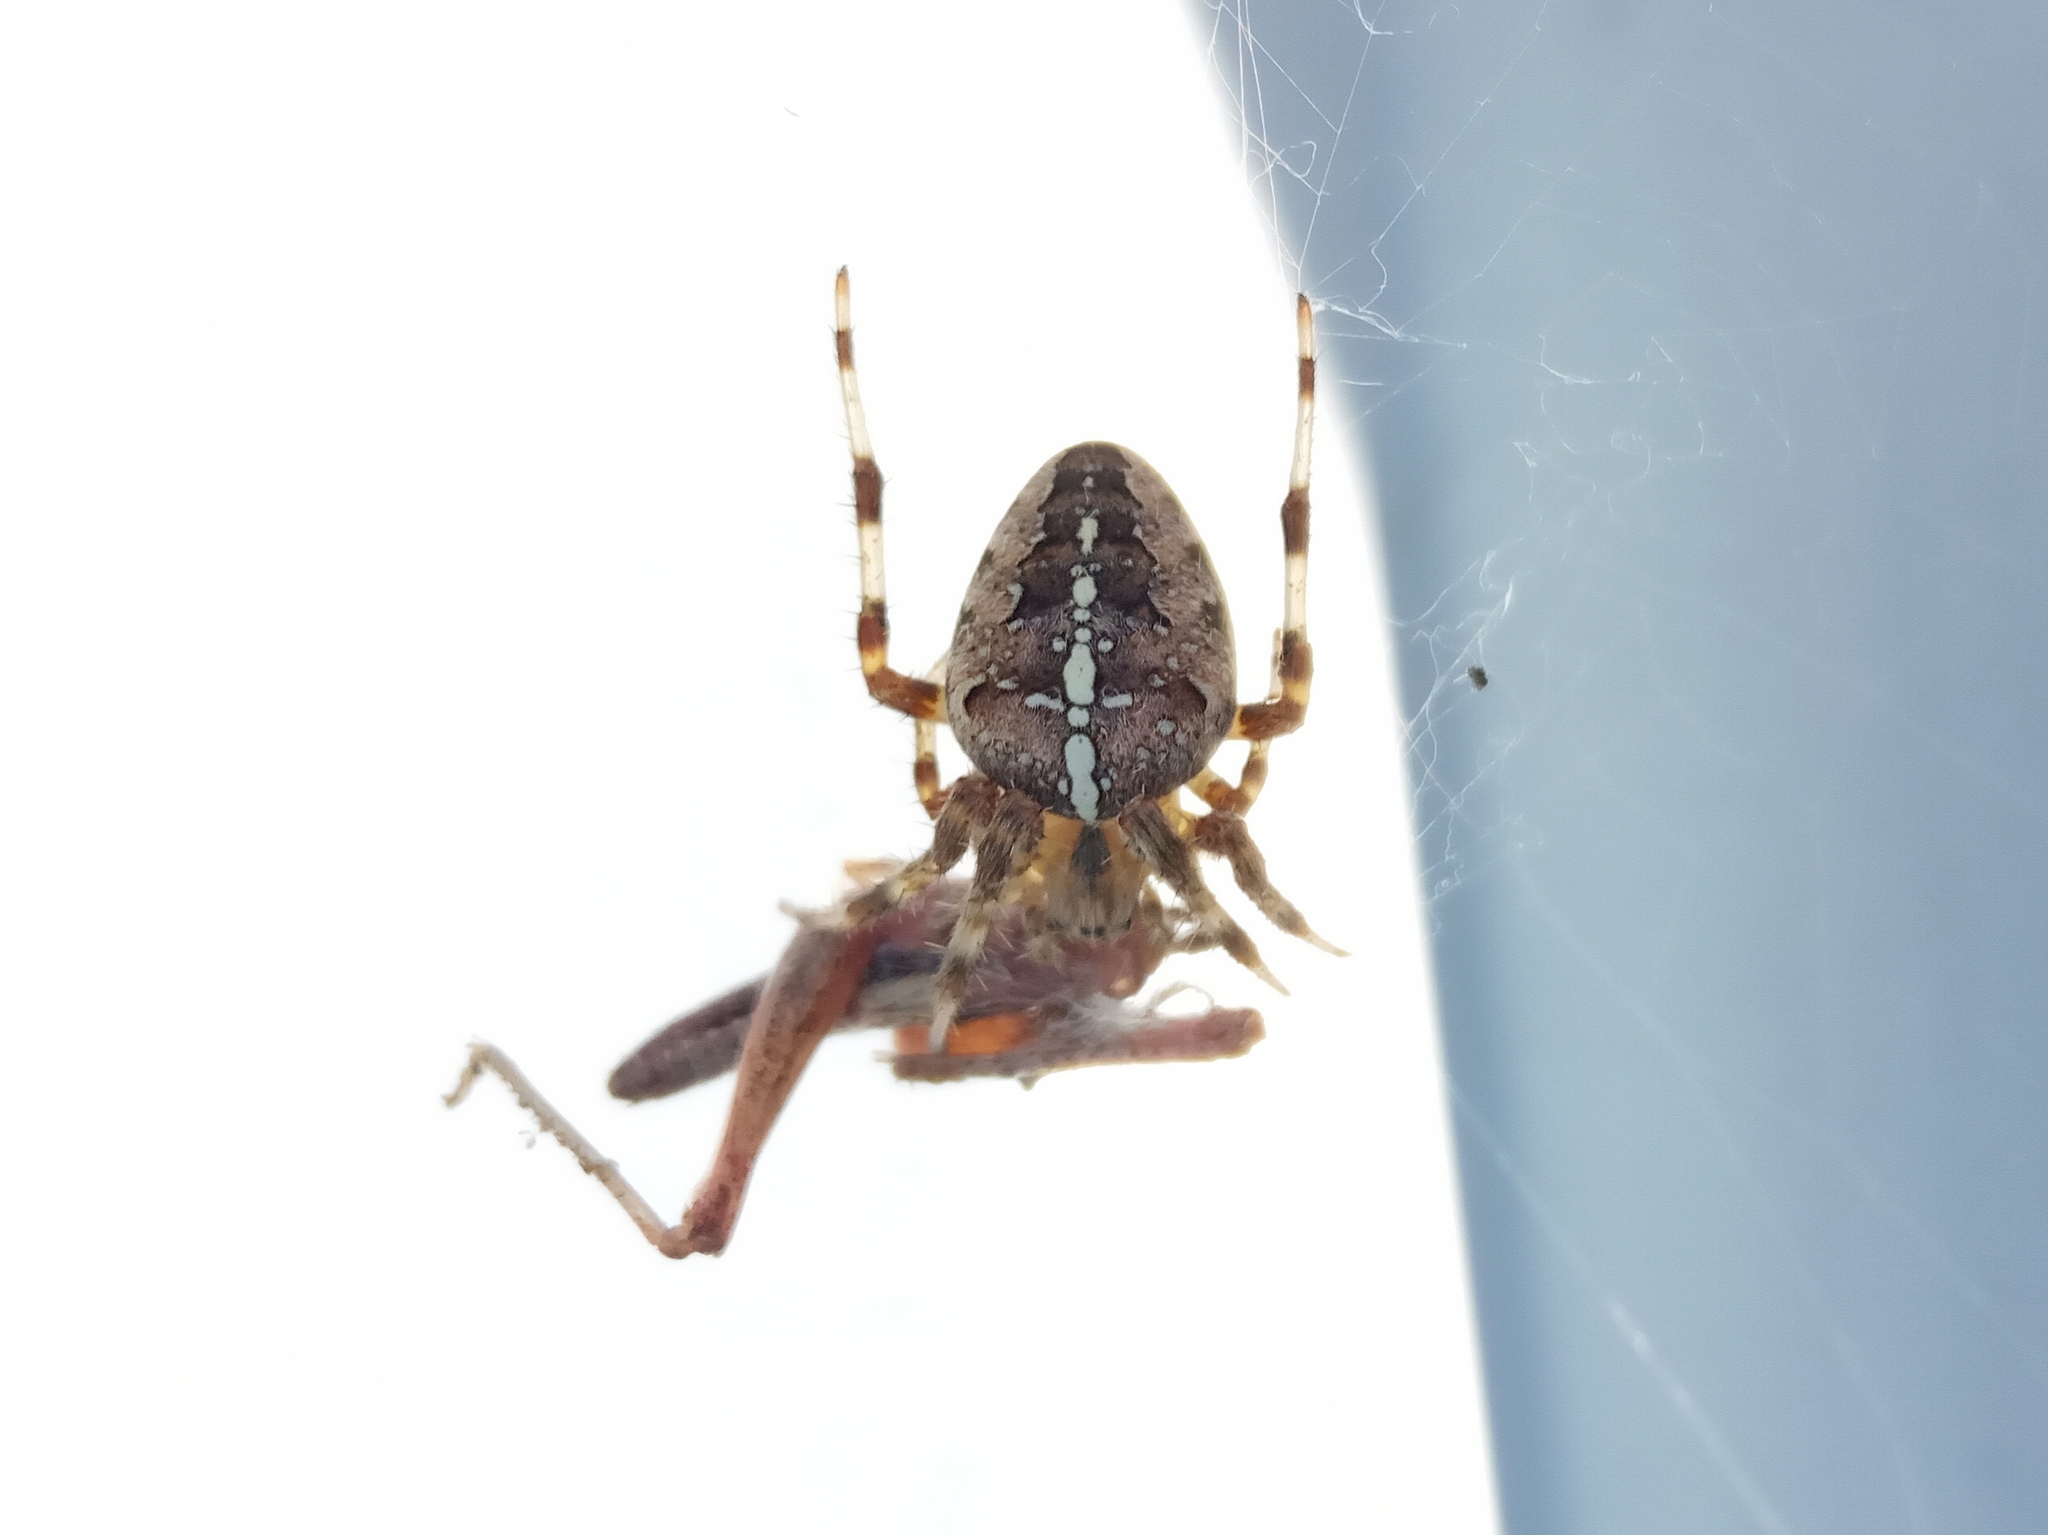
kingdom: Animalia
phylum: Arthropoda
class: Arachnida
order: Araneae
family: Araneidae
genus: Araneus
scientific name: Araneus diadematus
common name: Cross orbweaver
